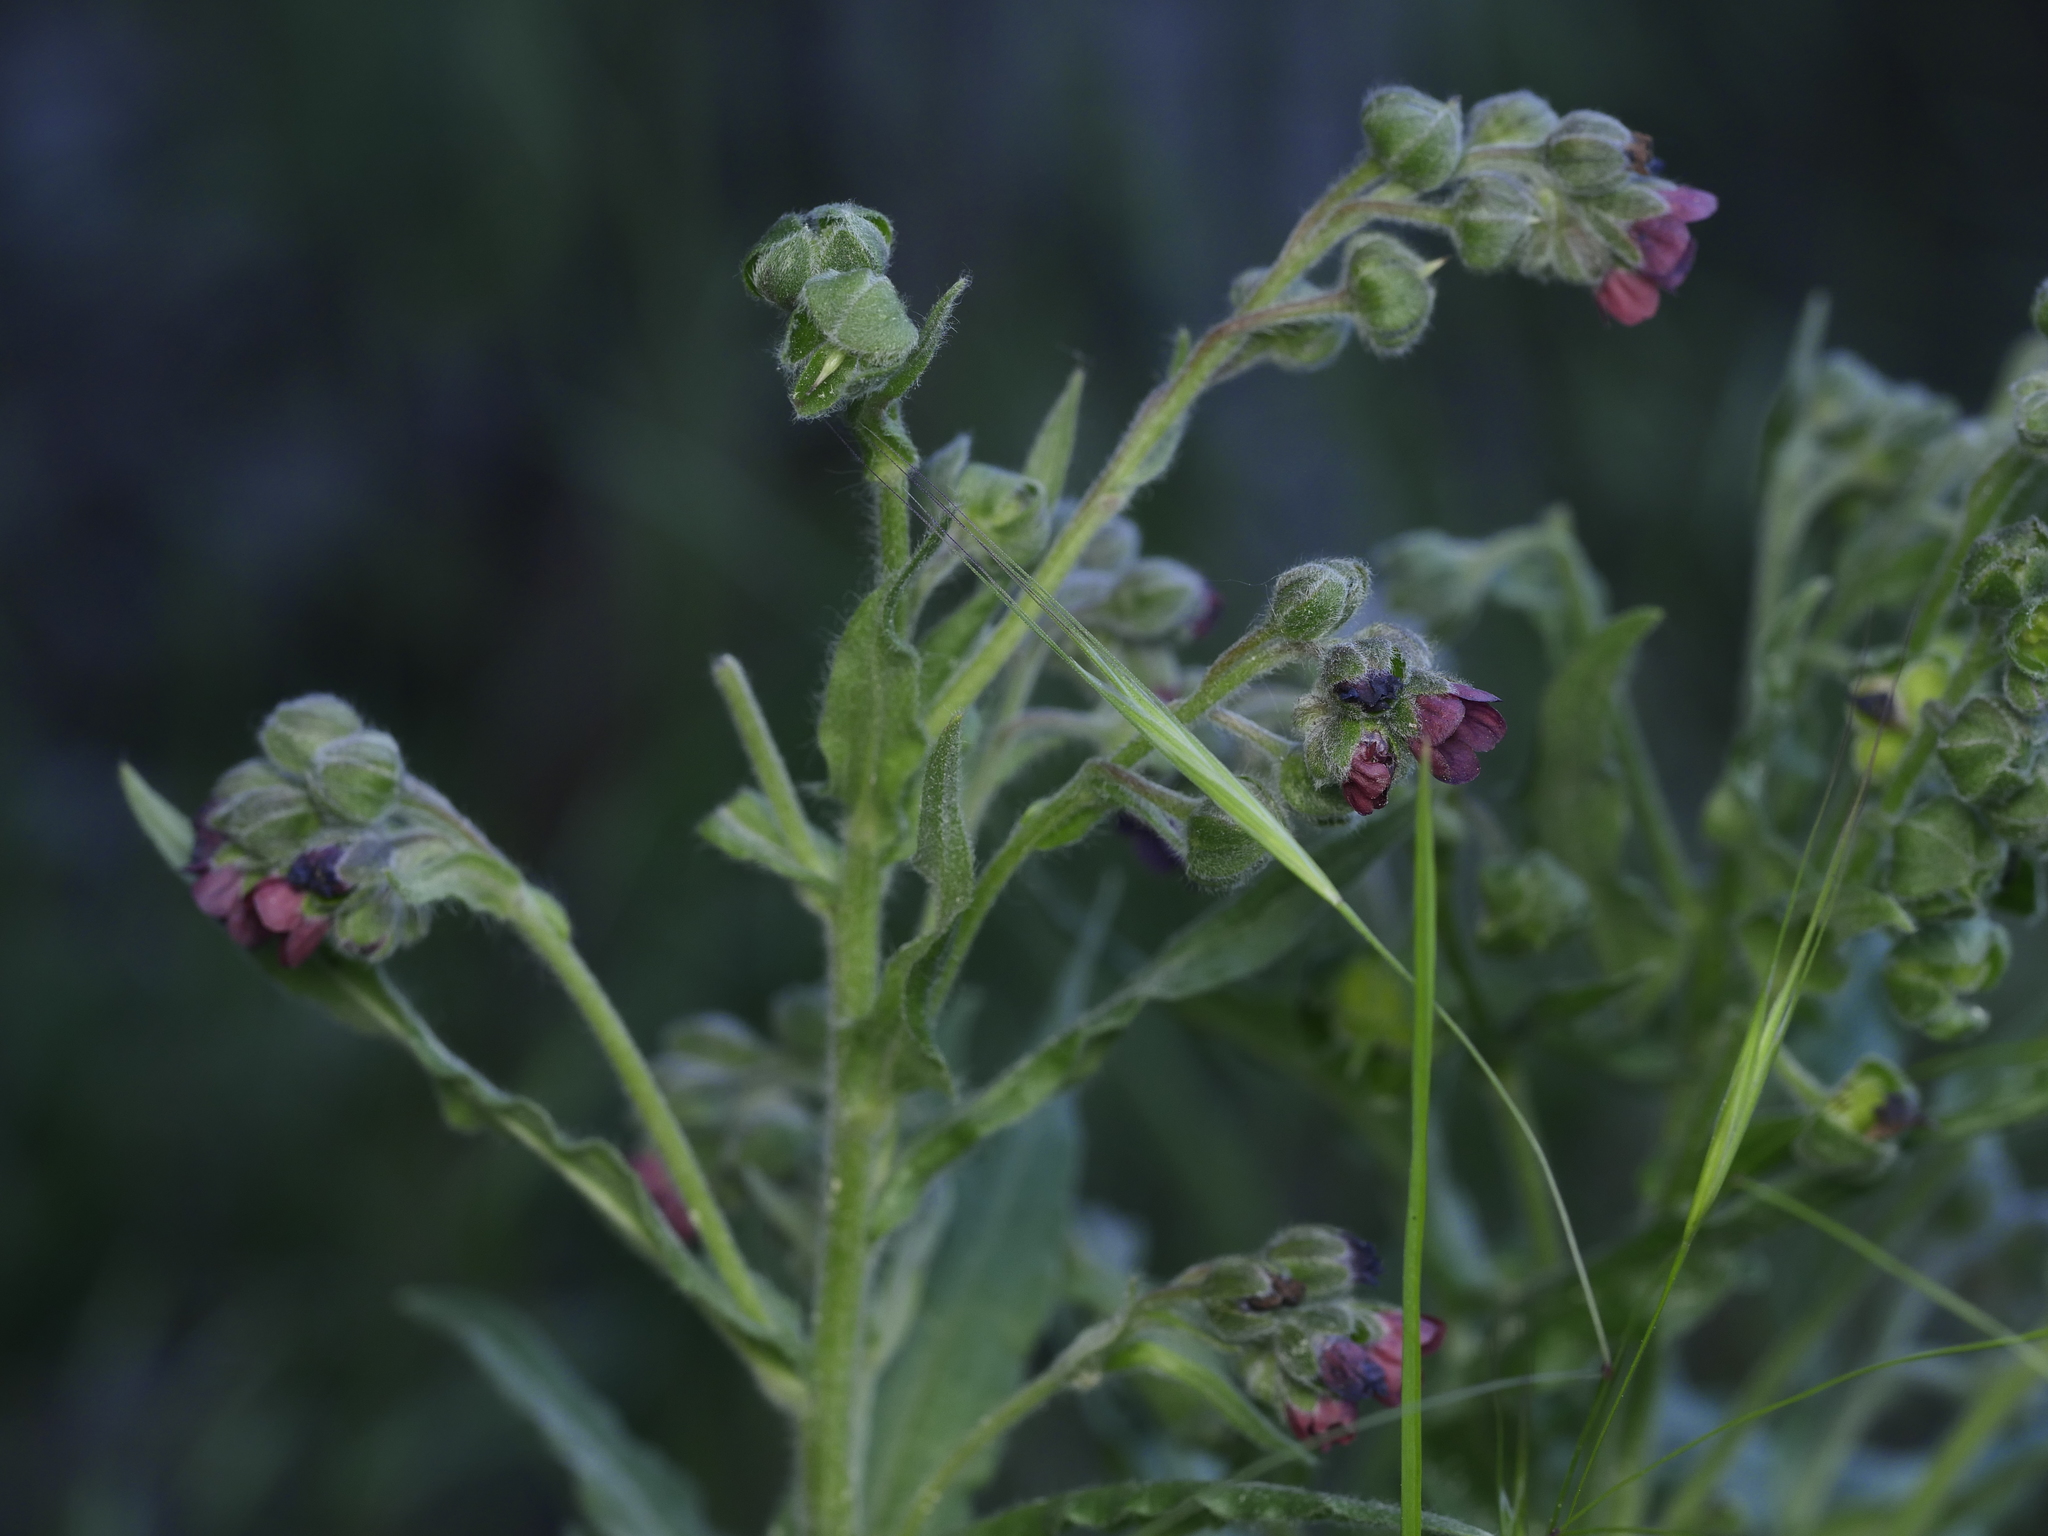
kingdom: Plantae
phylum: Tracheophyta
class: Magnoliopsida
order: Boraginales
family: Boraginaceae
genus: Cynoglossum
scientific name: Cynoglossum officinale
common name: Hound's-tongue
